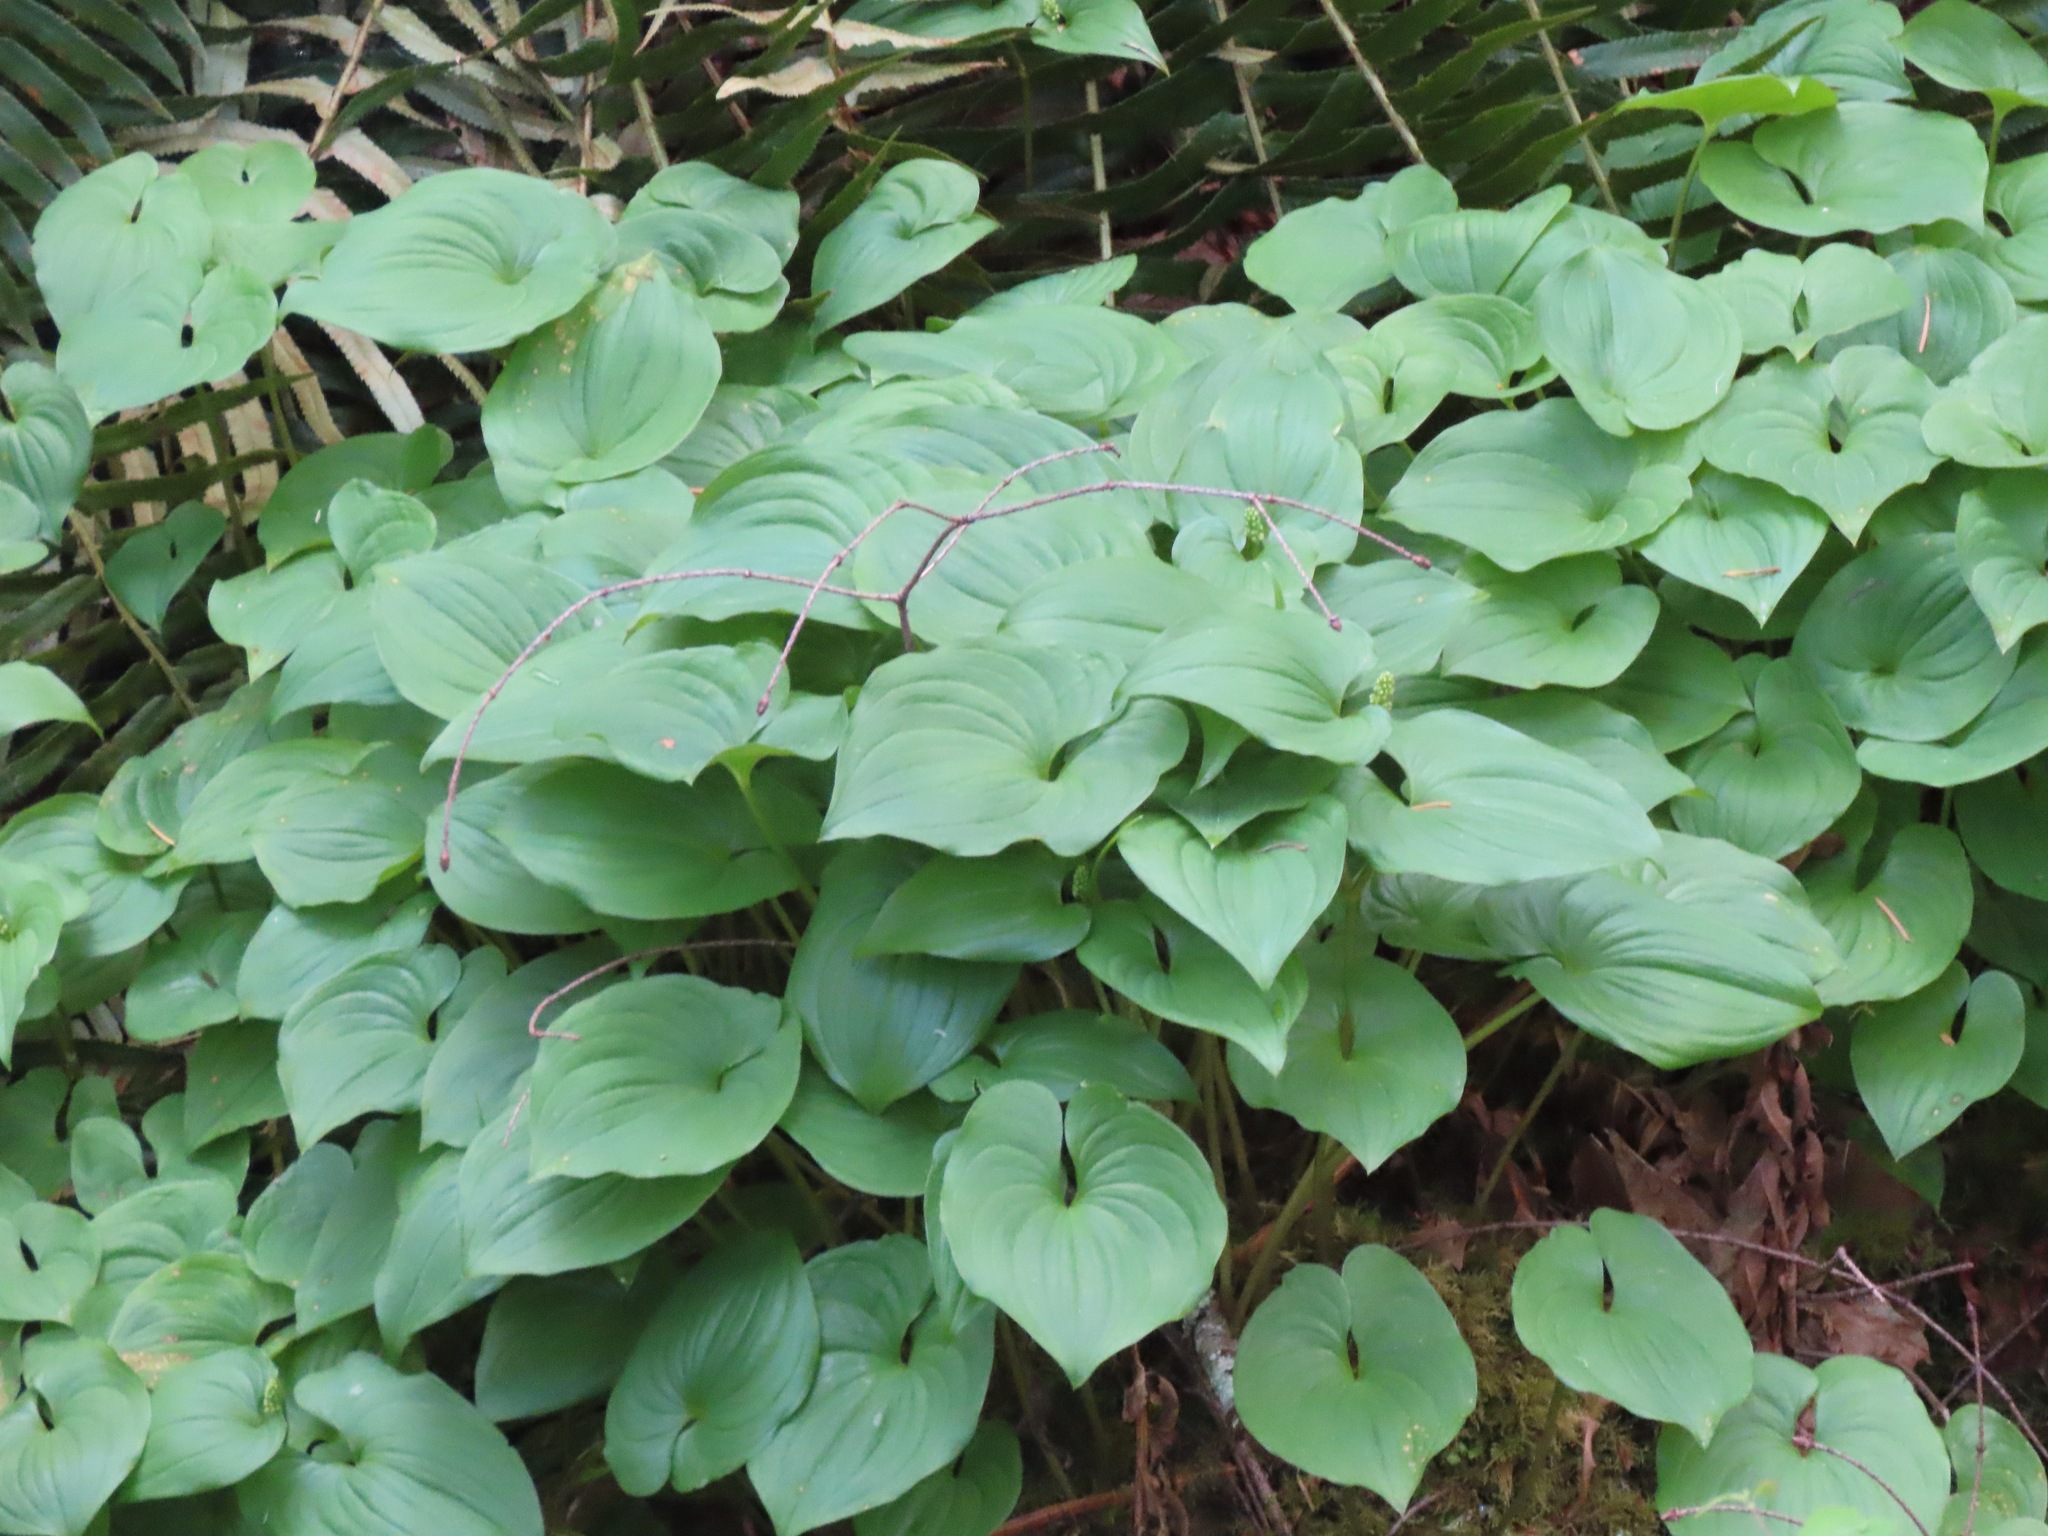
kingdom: Plantae
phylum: Tracheophyta
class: Liliopsida
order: Asparagales
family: Asparagaceae
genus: Maianthemum
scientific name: Maianthemum dilatatum
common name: False lily-of-the-valley
